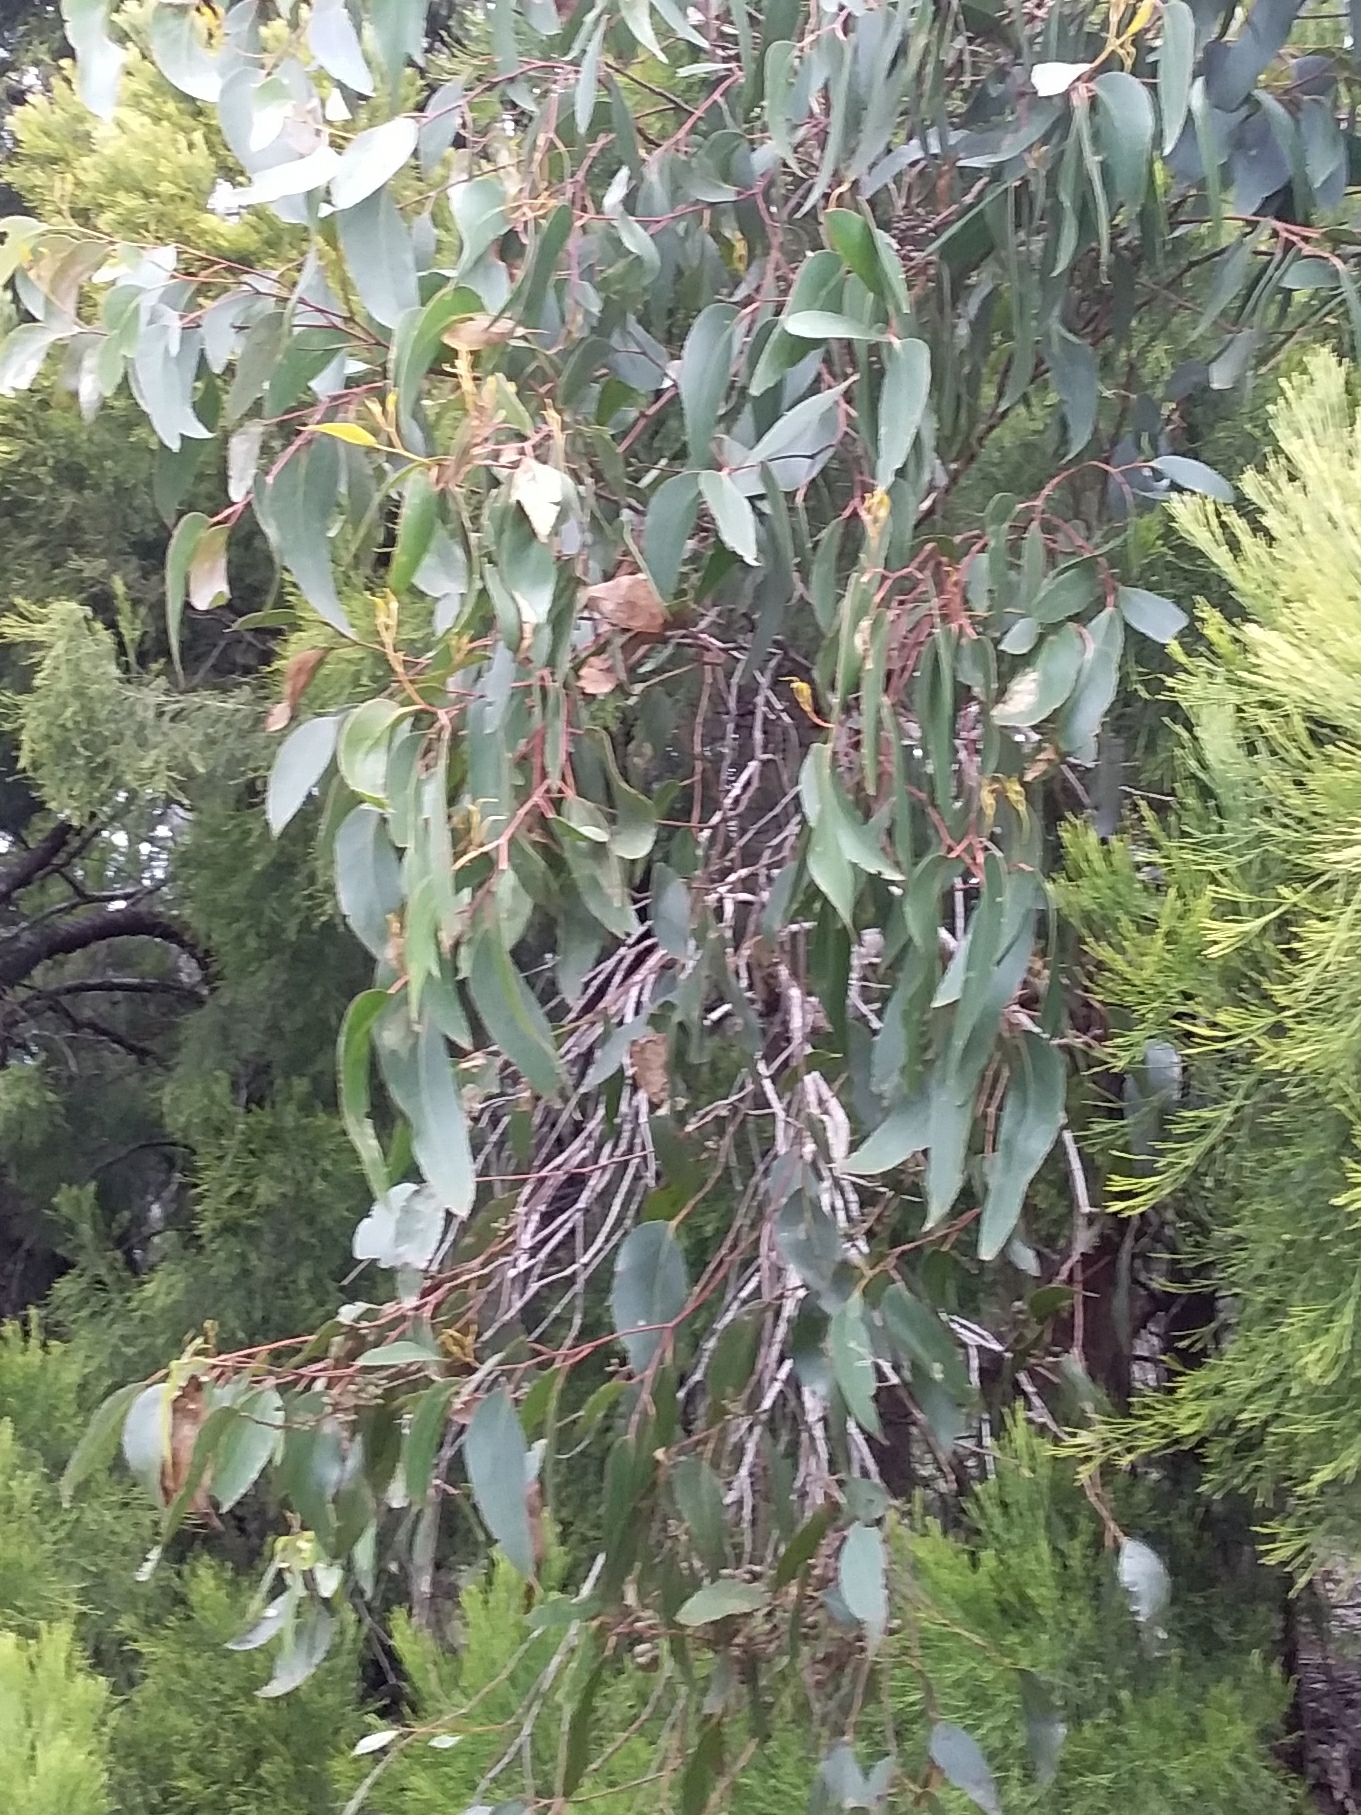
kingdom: Plantae
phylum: Tracheophyta
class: Magnoliopsida
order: Myrtales
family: Myrtaceae
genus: Eucalyptus
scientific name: Eucalyptus baxteri
